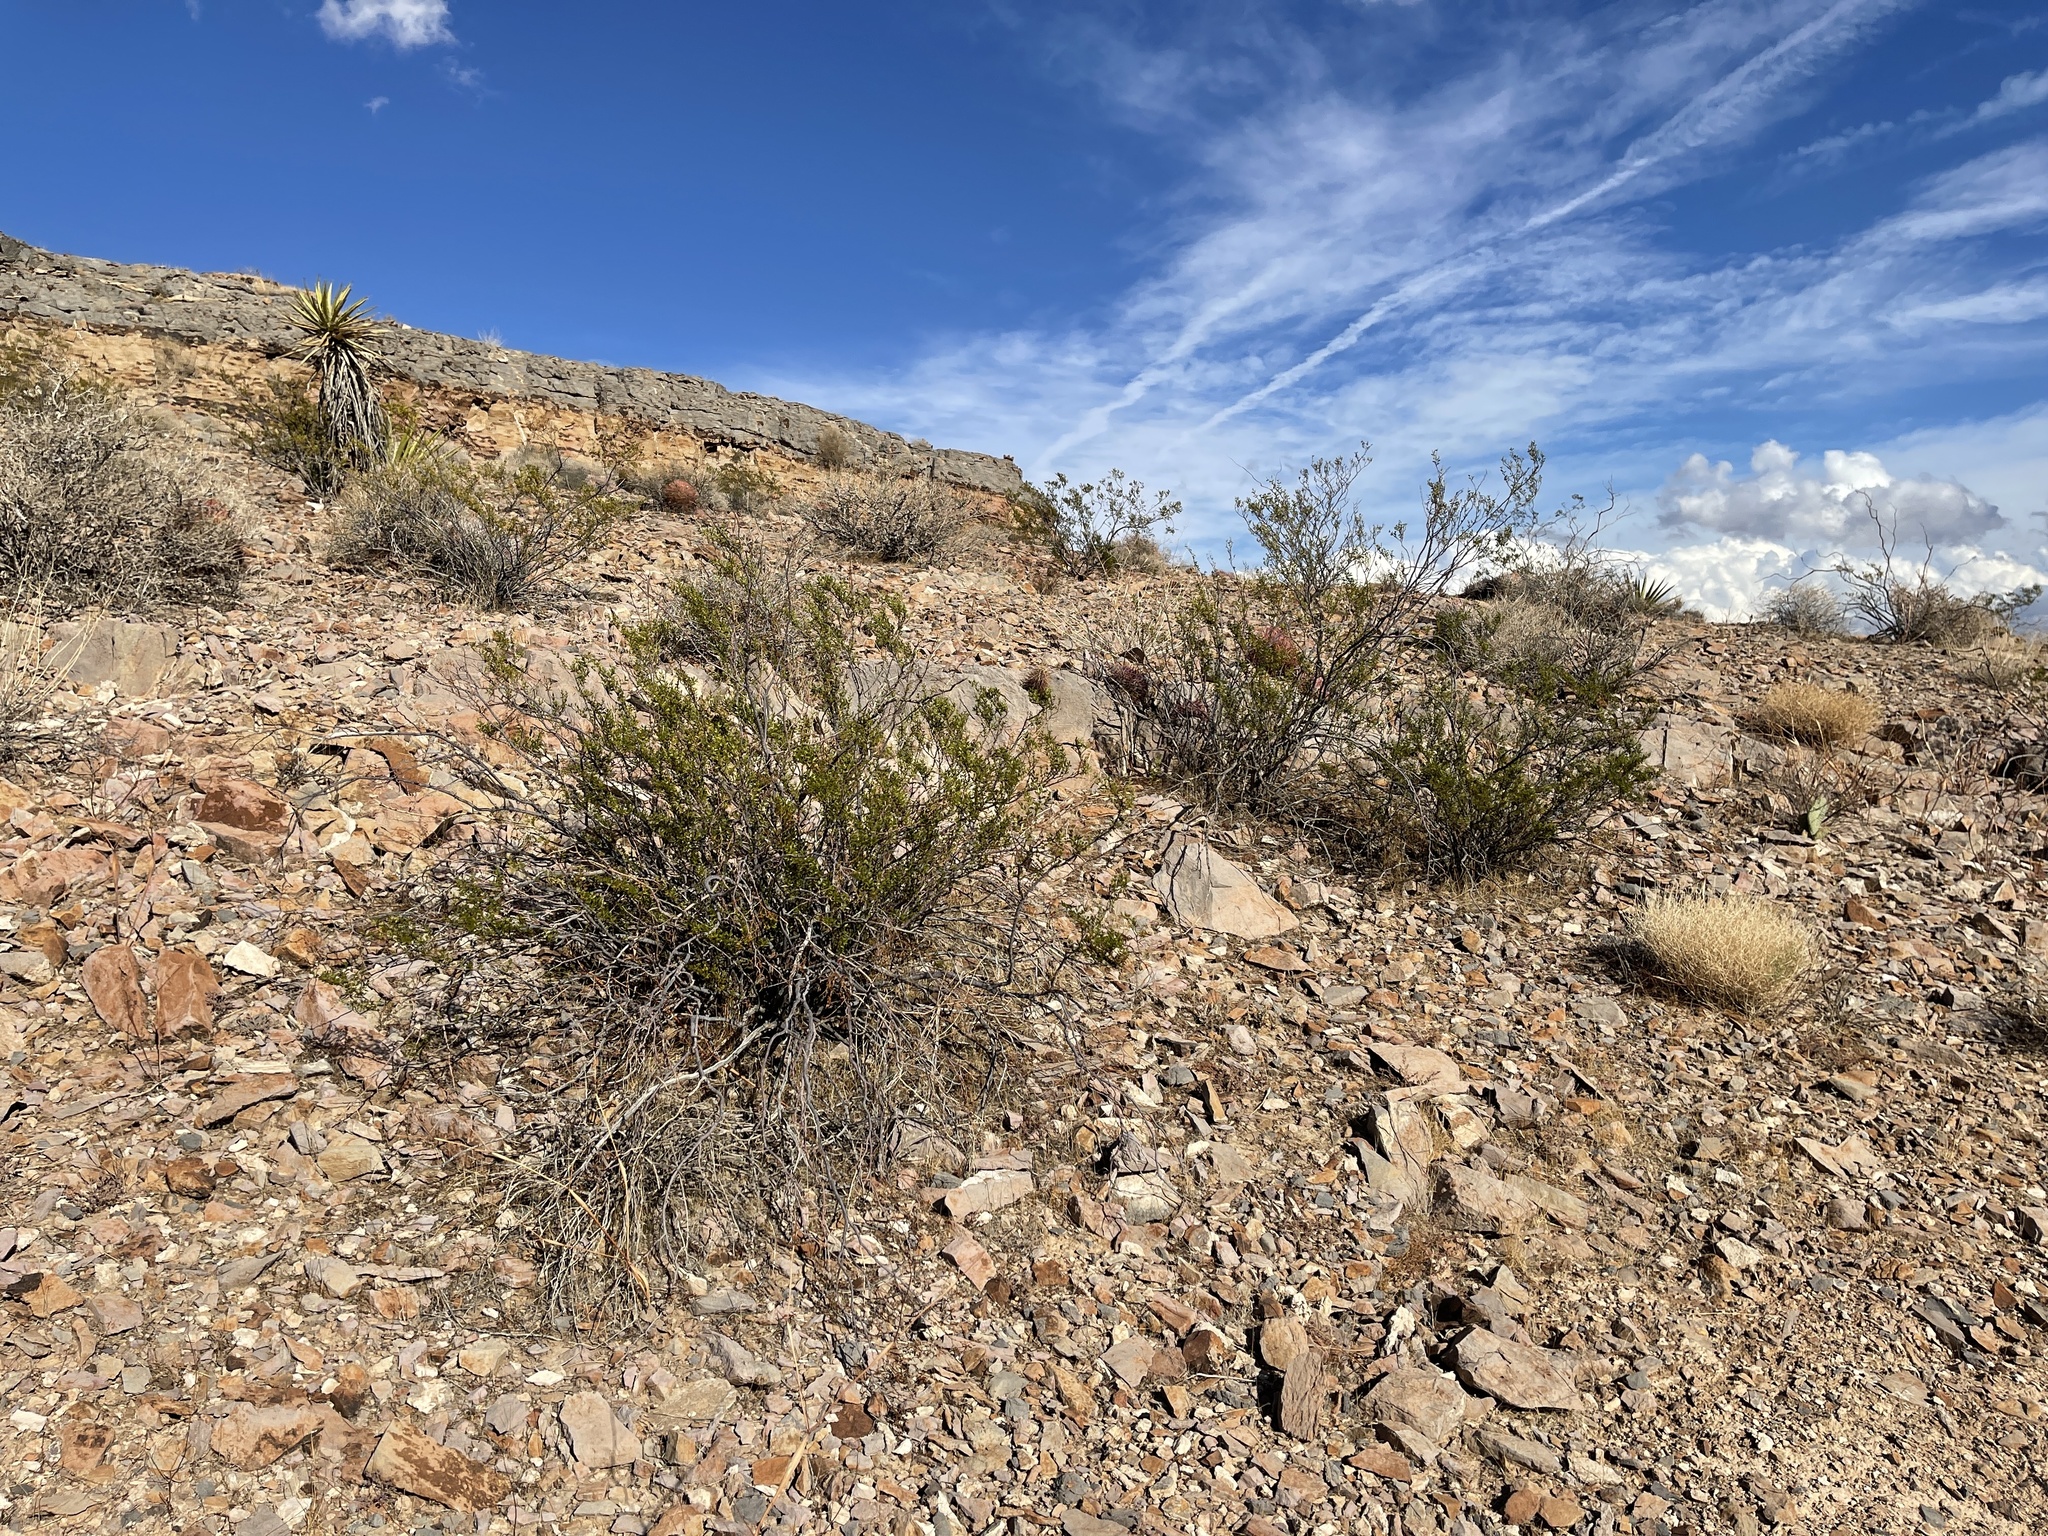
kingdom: Plantae
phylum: Tracheophyta
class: Magnoliopsida
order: Zygophyllales
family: Zygophyllaceae
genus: Larrea
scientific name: Larrea tridentata
